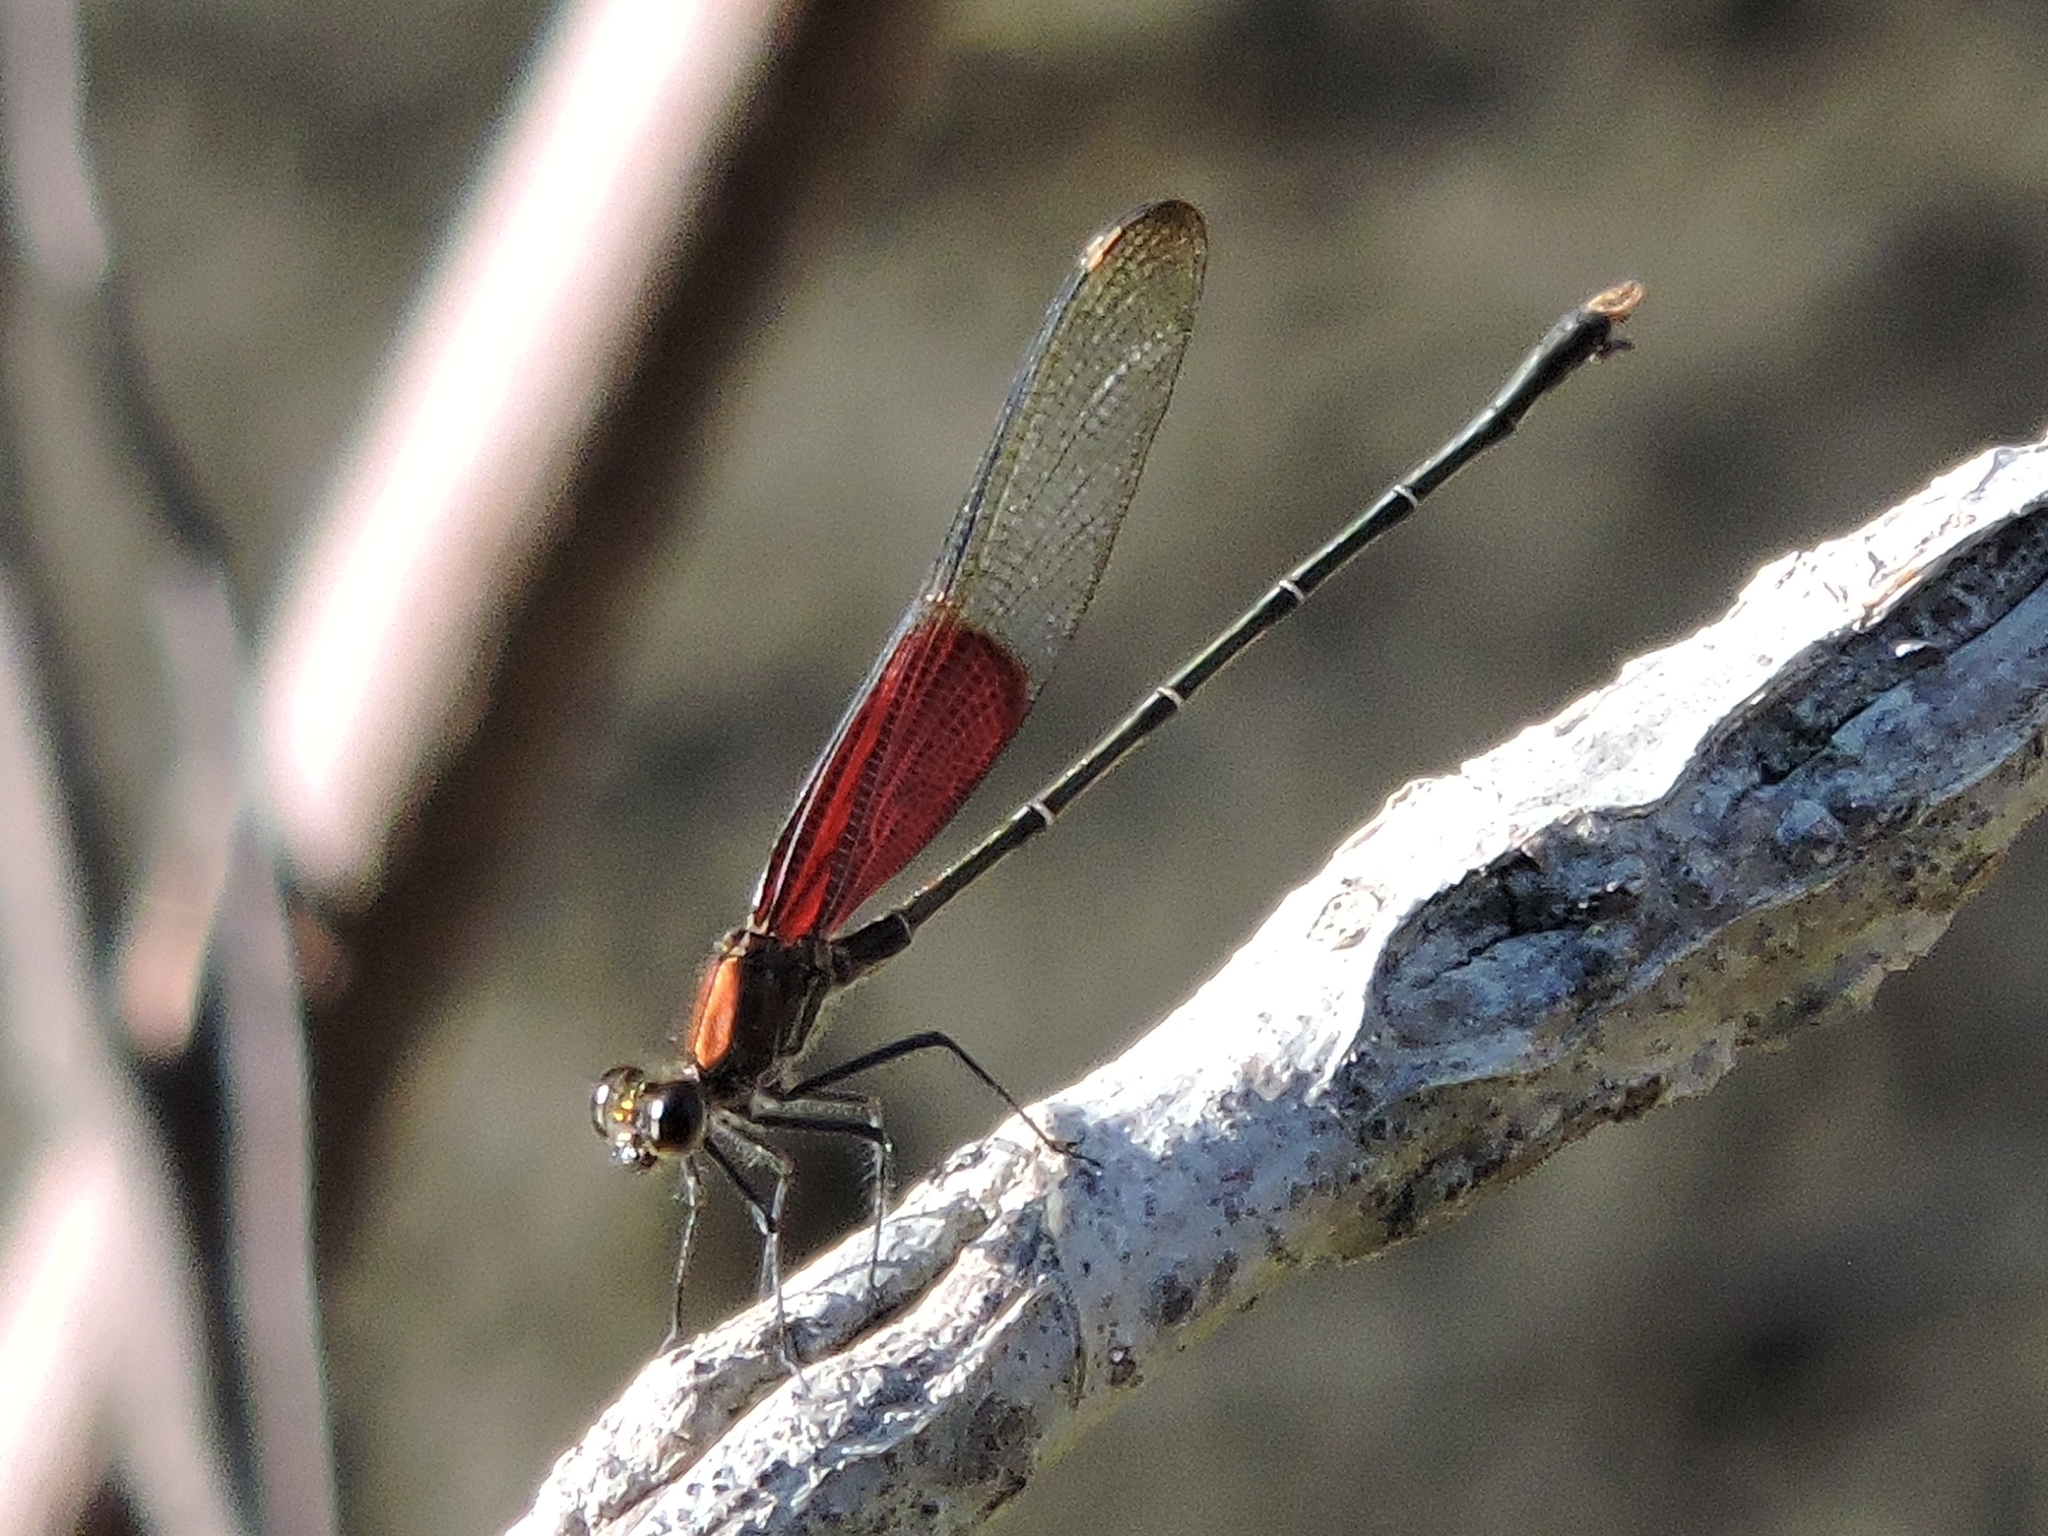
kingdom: Animalia
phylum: Arthropoda
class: Insecta
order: Odonata
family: Calopterygidae
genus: Hetaerina
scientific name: Hetaerina americana
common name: American rubyspot
